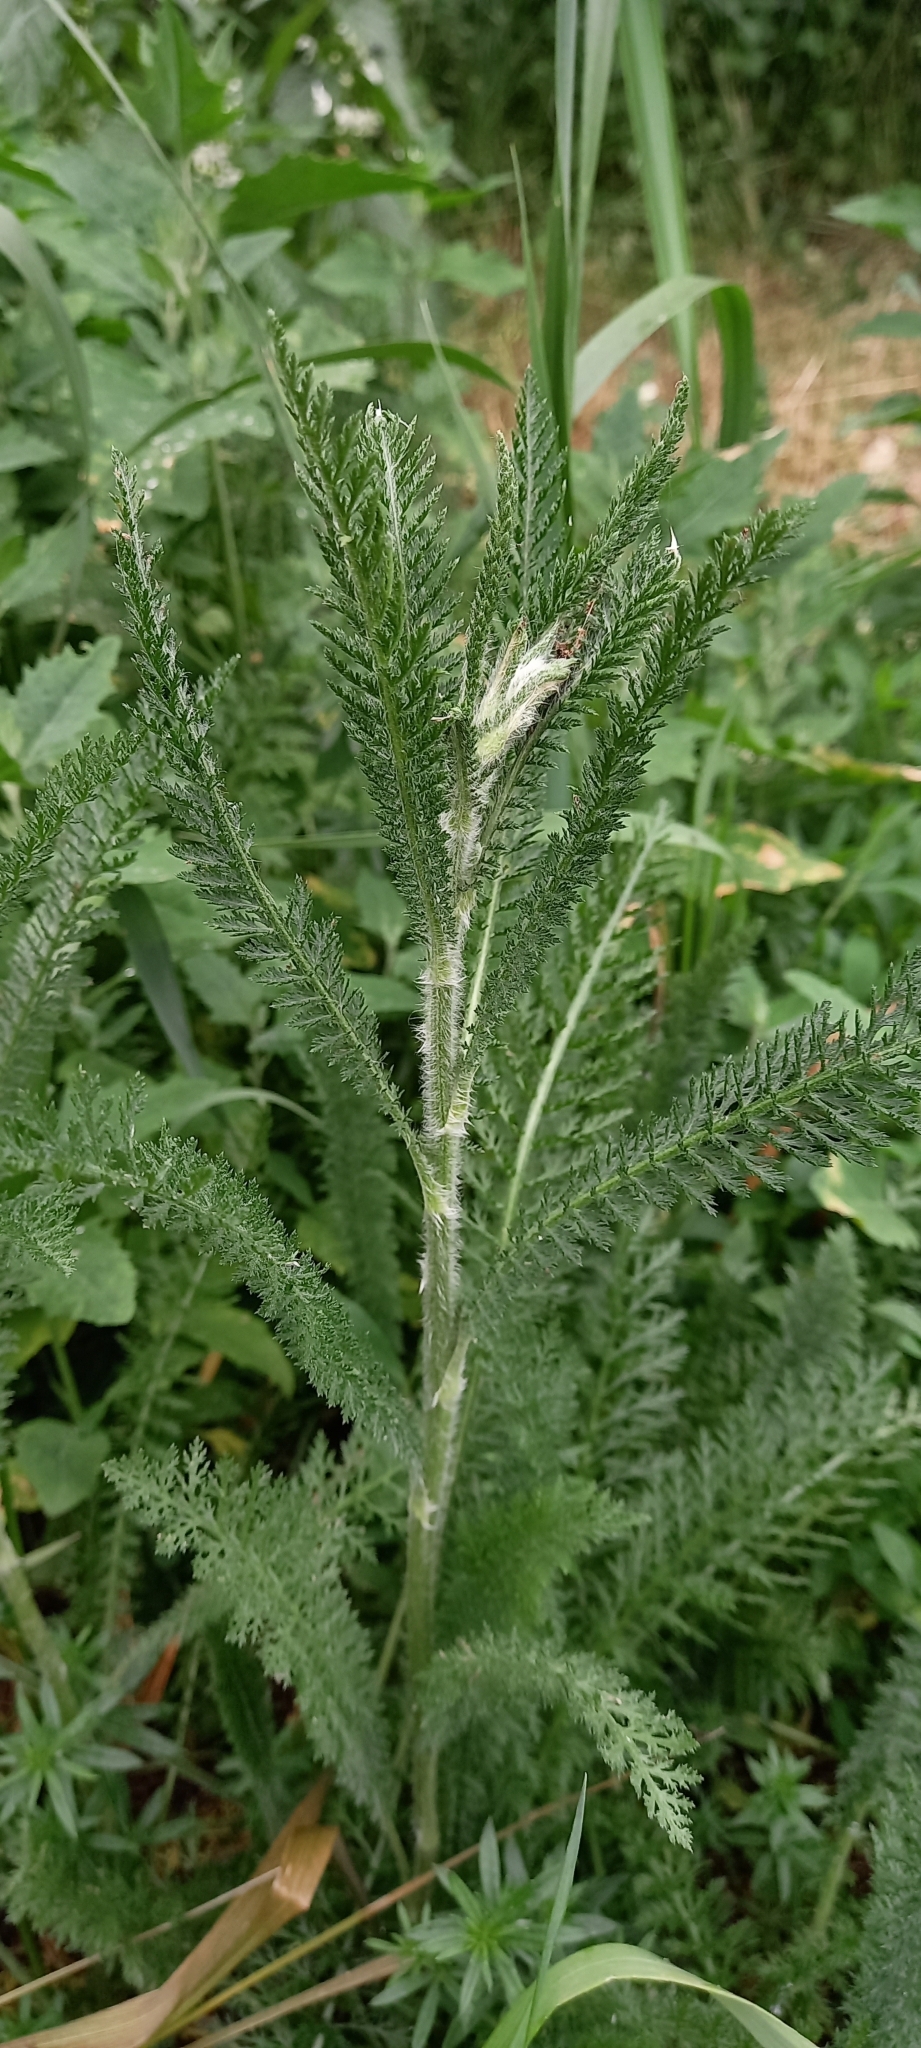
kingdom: Plantae
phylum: Tracheophyta
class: Magnoliopsida
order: Asterales
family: Asteraceae
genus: Achillea
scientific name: Achillea setacea
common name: Bristly yarrow
